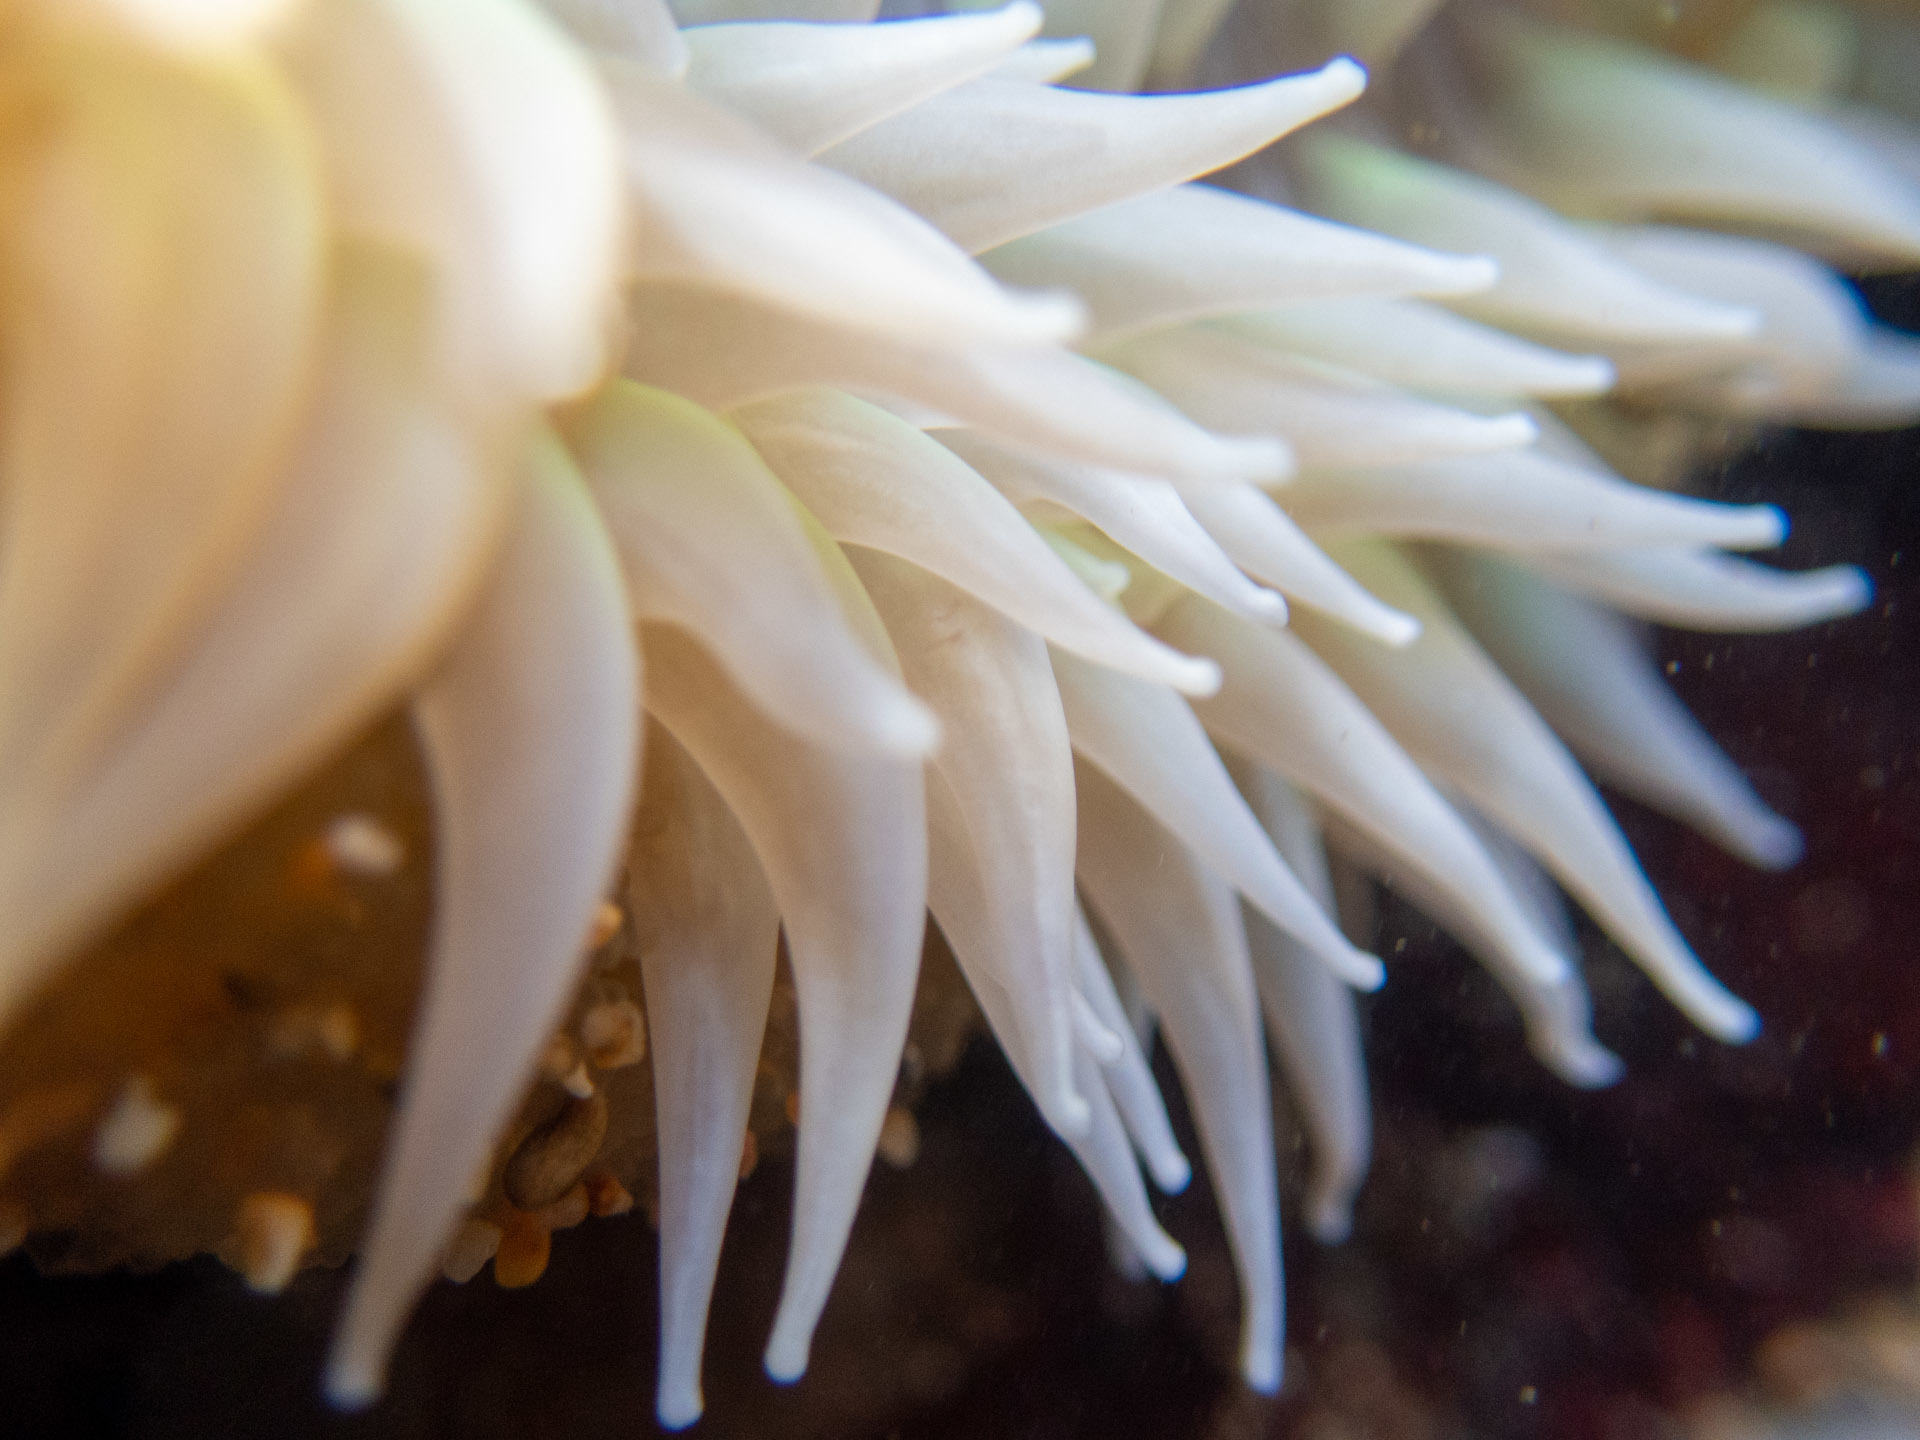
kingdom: Animalia
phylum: Cnidaria
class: Anthozoa
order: Actiniaria
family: Actiniidae
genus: Anthopleura
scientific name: Anthopleura xanthogrammica
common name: Giant green anemone
